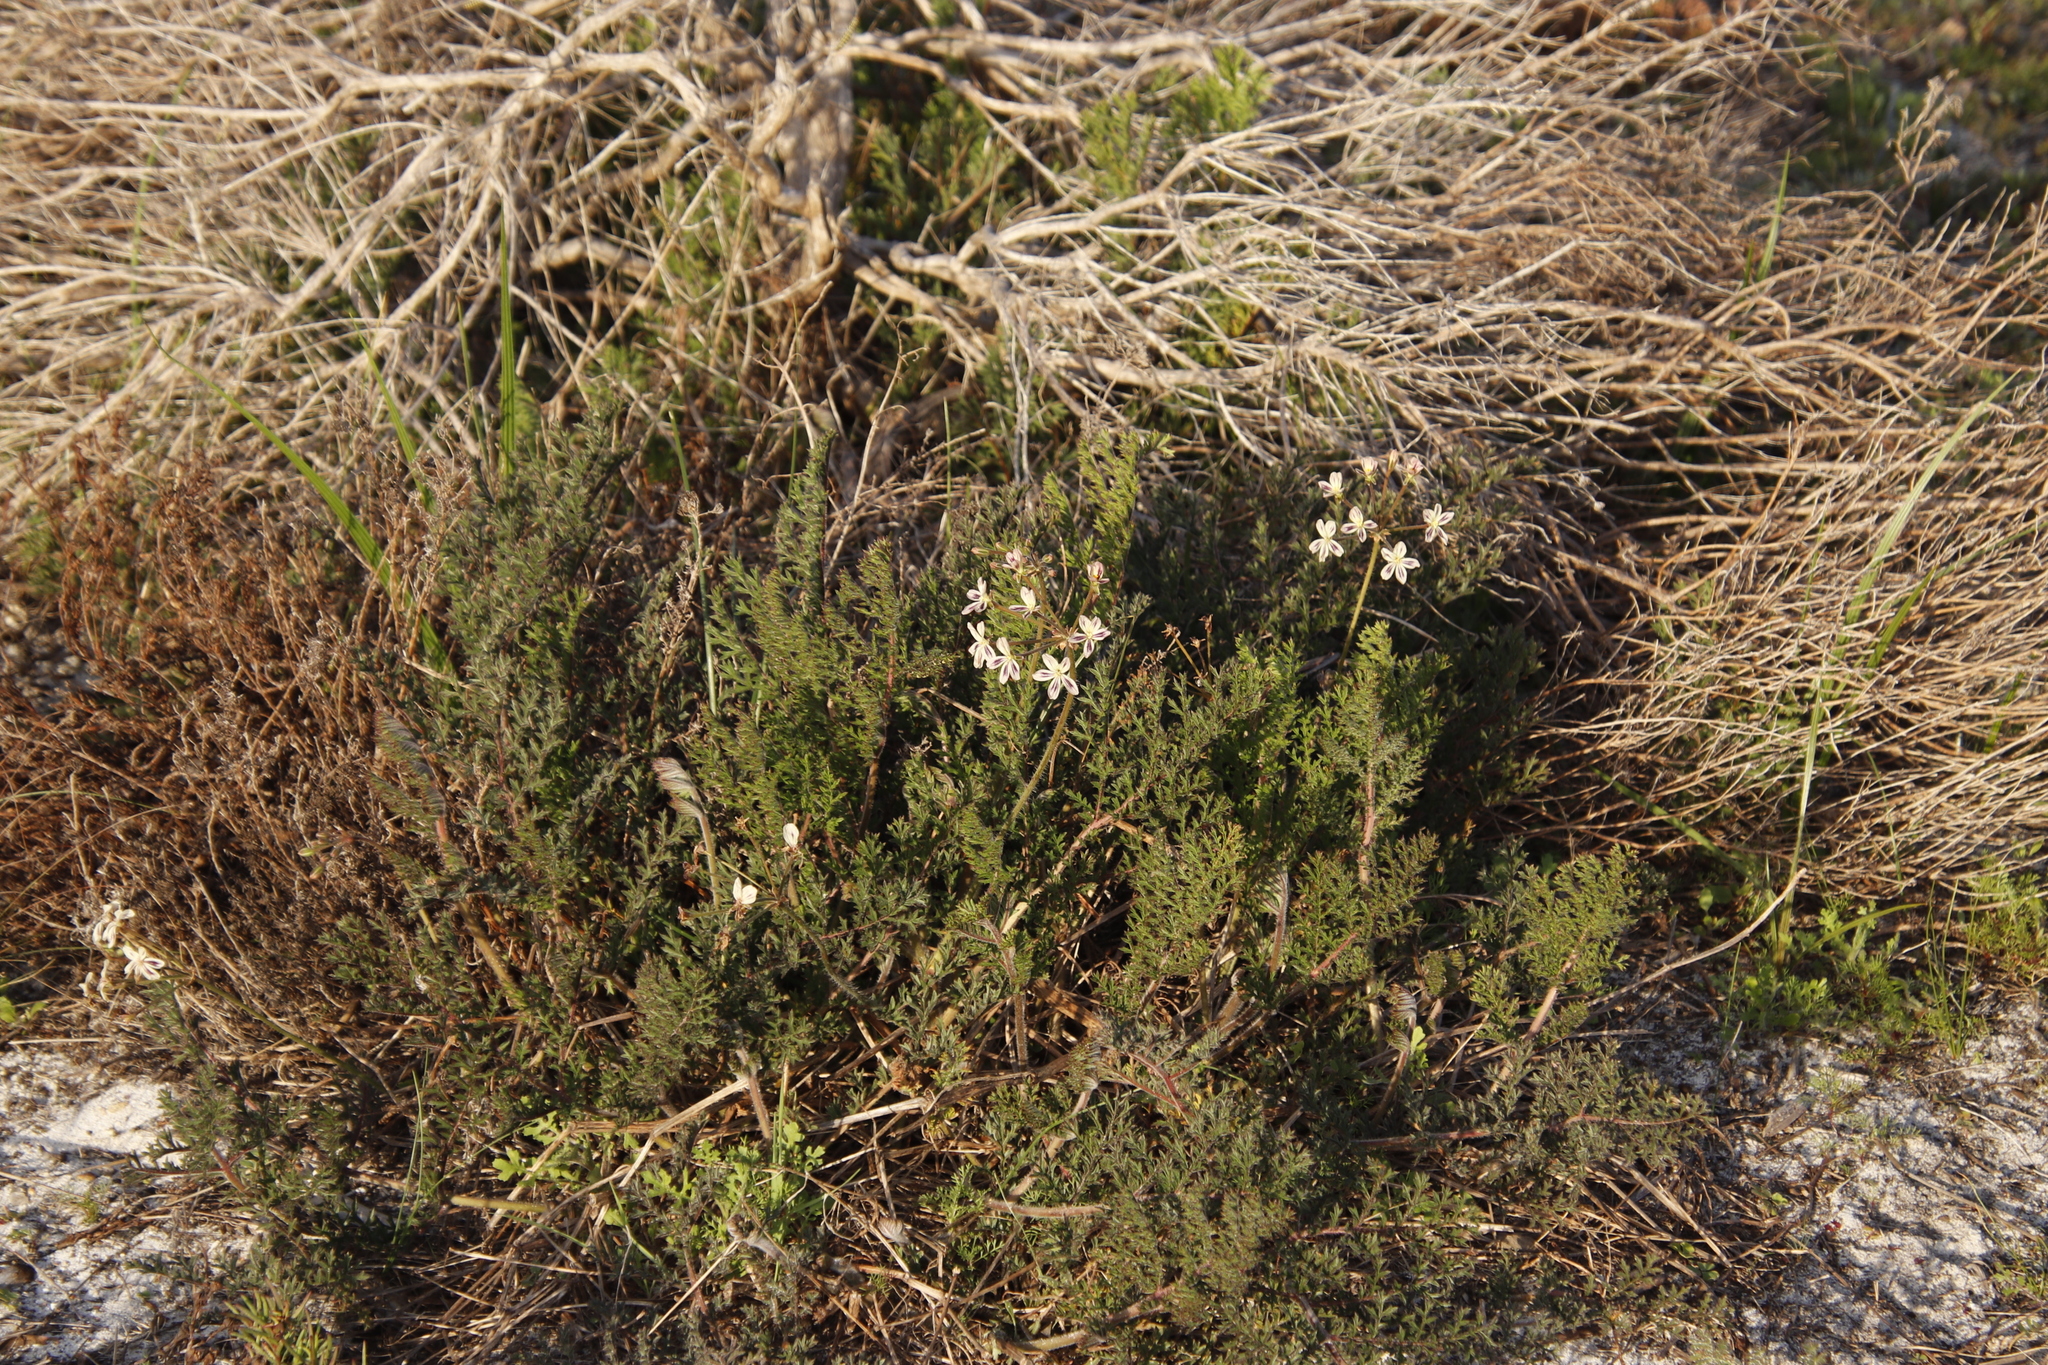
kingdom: Plantae
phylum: Tracheophyta
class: Magnoliopsida
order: Geraniales
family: Geraniaceae
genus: Pelargonium
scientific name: Pelargonium triste
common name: Night-scent pelargonium
